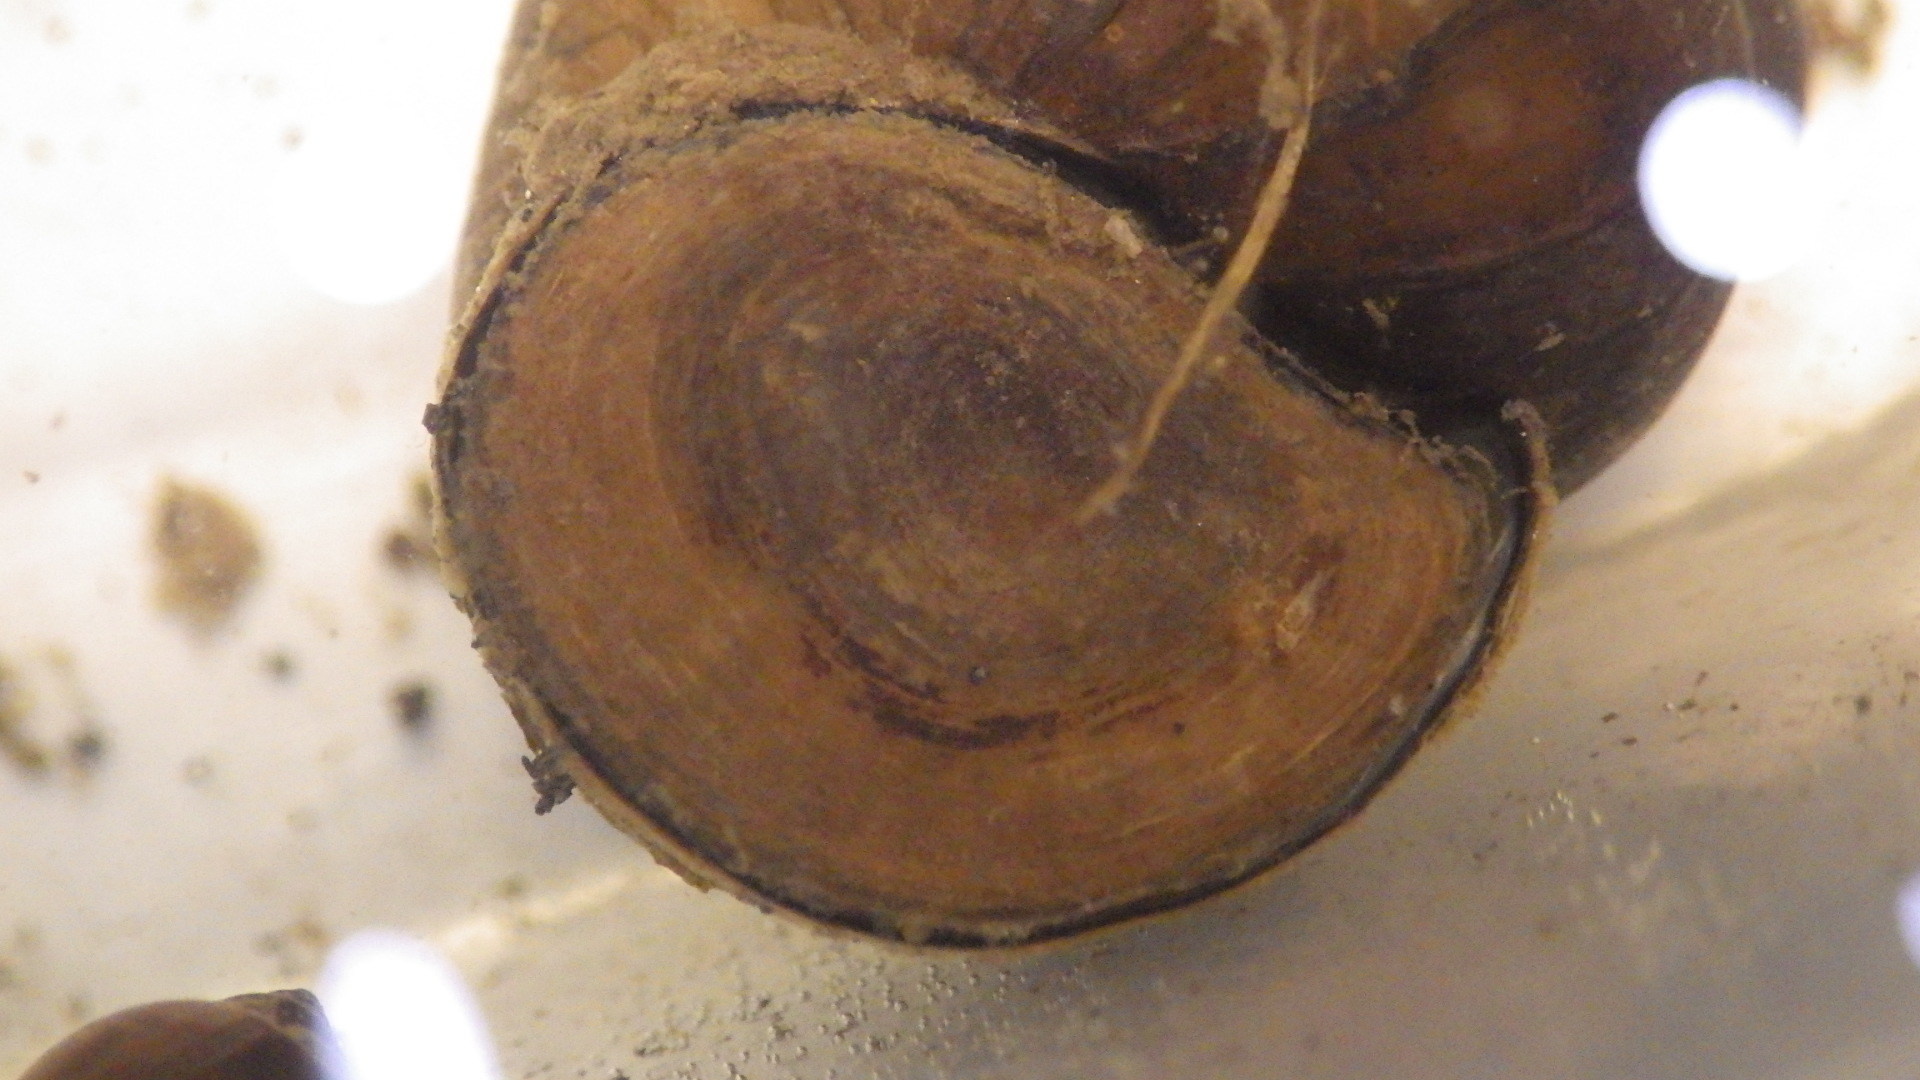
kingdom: Animalia
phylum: Mollusca
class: Gastropoda
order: Architaenioglossa
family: Viviparidae
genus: Cipangopaludina
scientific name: Cipangopaludina chinensis
